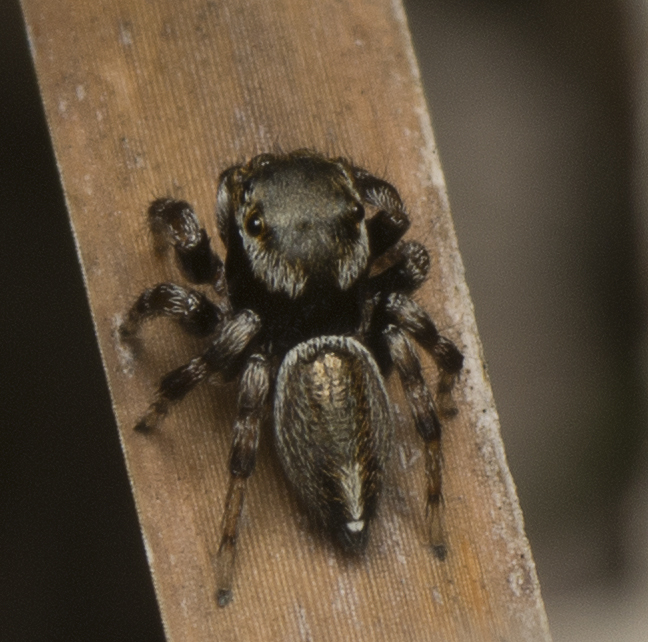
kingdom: Animalia
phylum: Arthropoda
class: Arachnida
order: Araneae
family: Salticidae
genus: Maratus
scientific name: Maratus scutulatus
